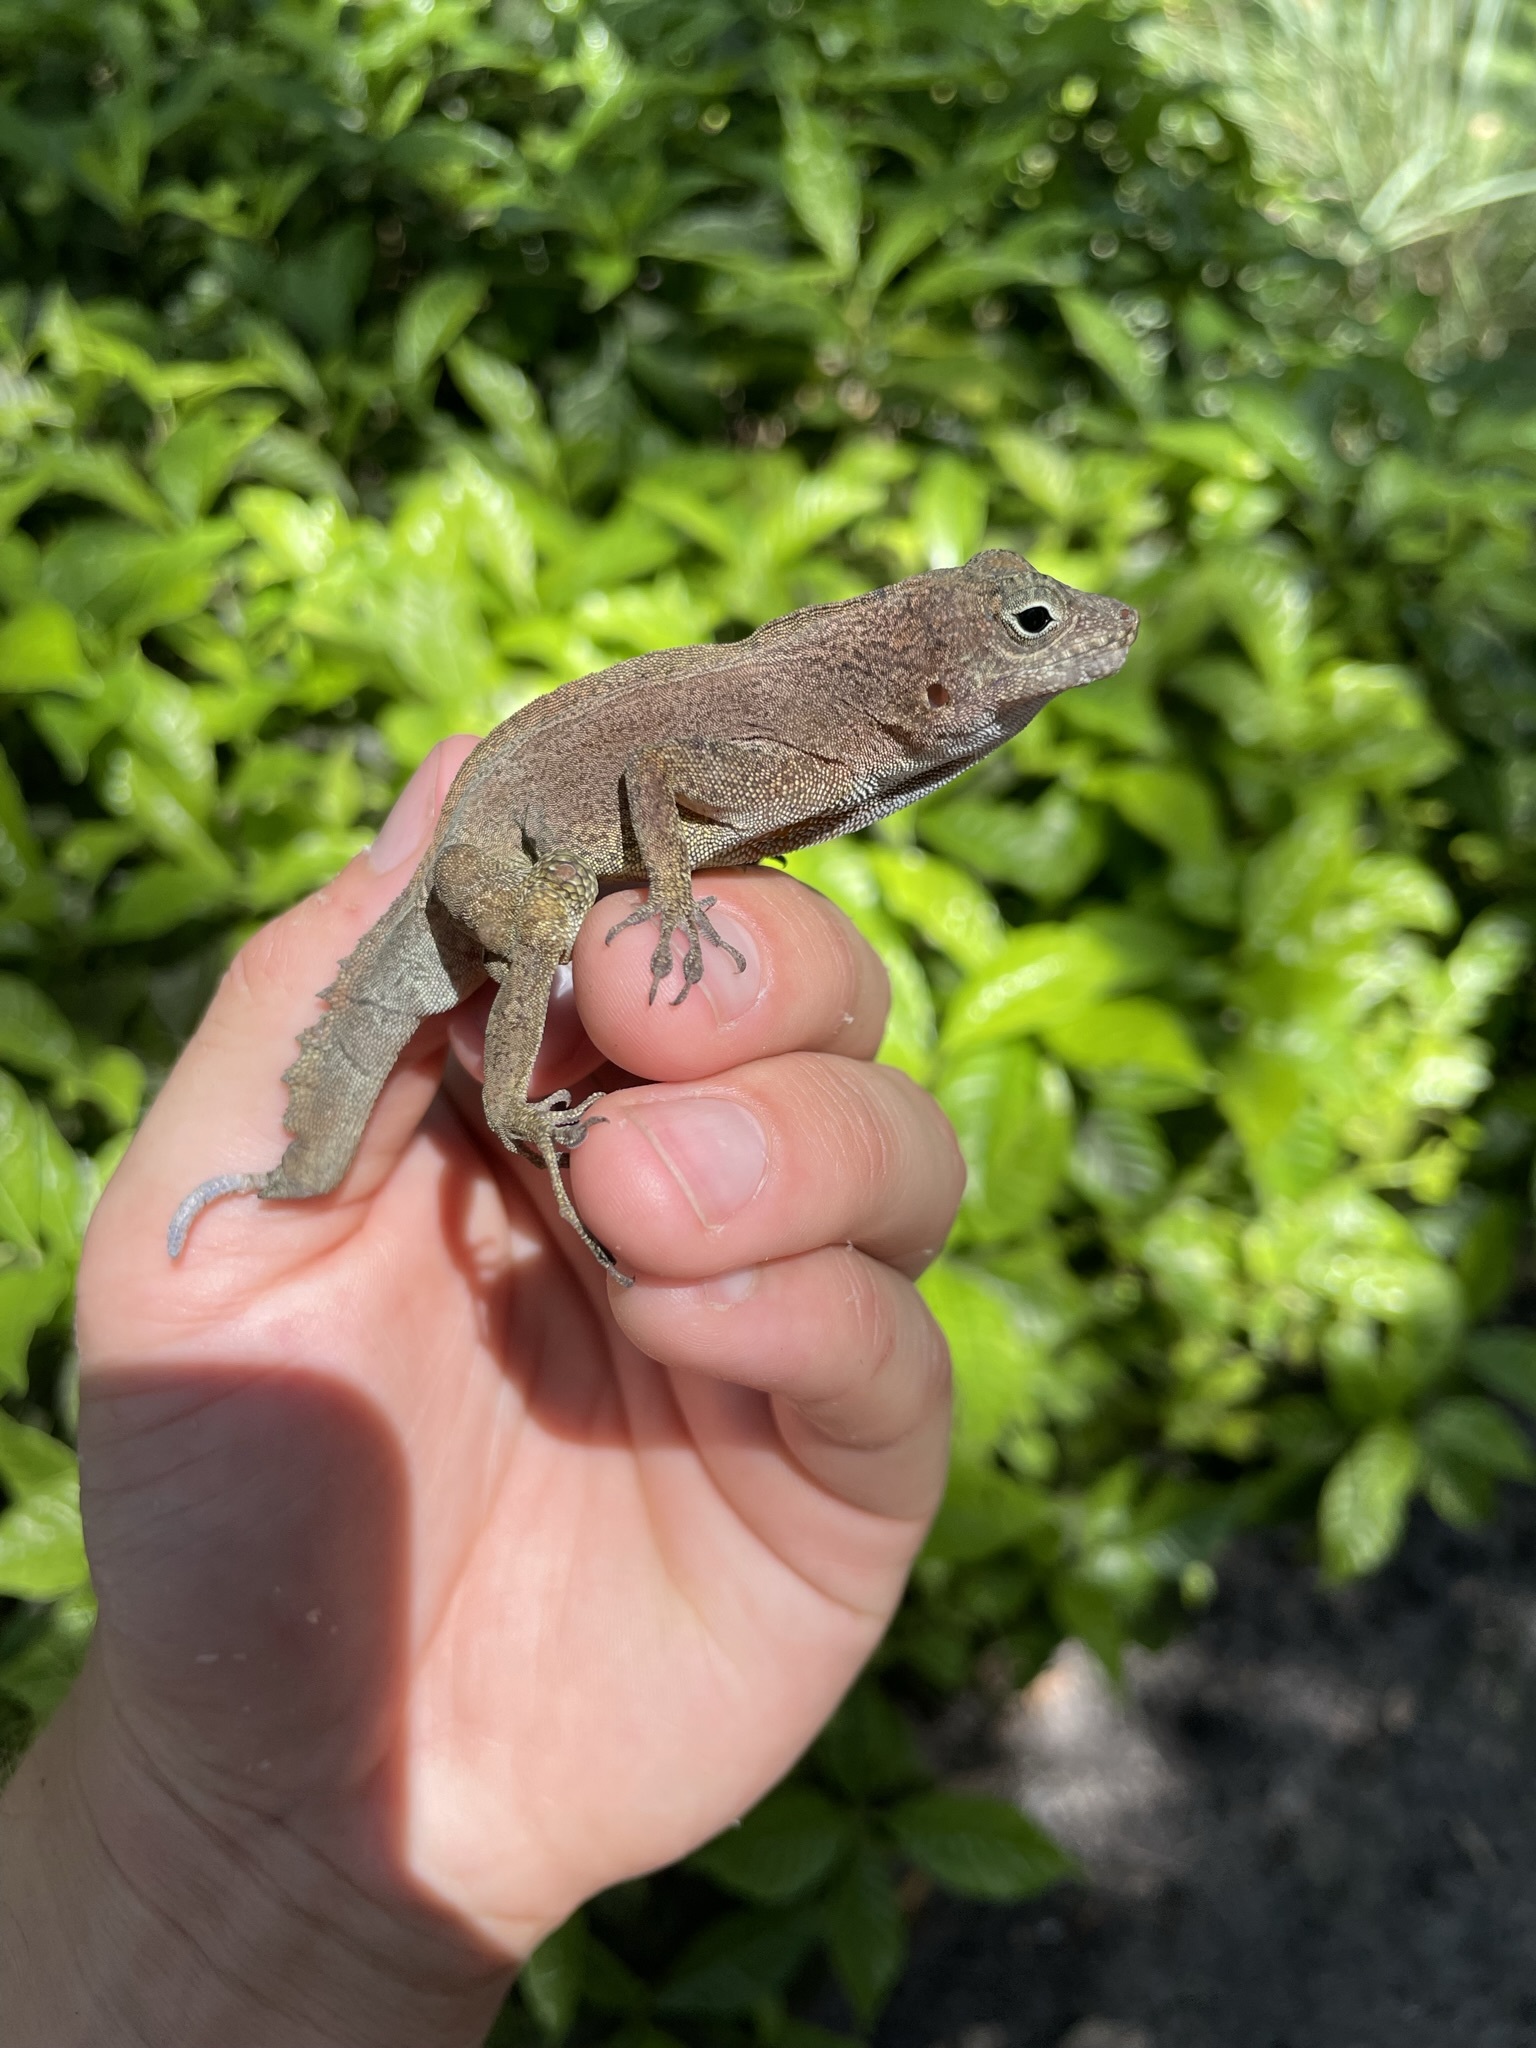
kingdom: Animalia
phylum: Chordata
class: Squamata
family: Dactyloidae
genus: Anolis
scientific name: Anolis cristatellus
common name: Crested anole
